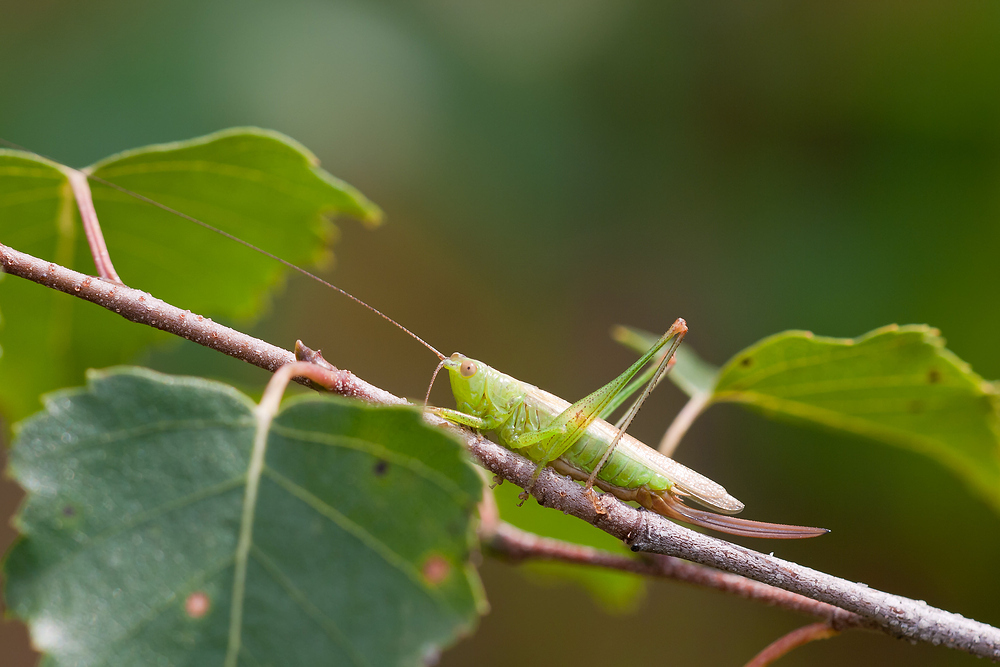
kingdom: Animalia
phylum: Arthropoda
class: Insecta
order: Orthoptera
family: Tettigoniidae
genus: Conocephalus
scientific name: Conocephalus fuscus
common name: Long-winged conehead
